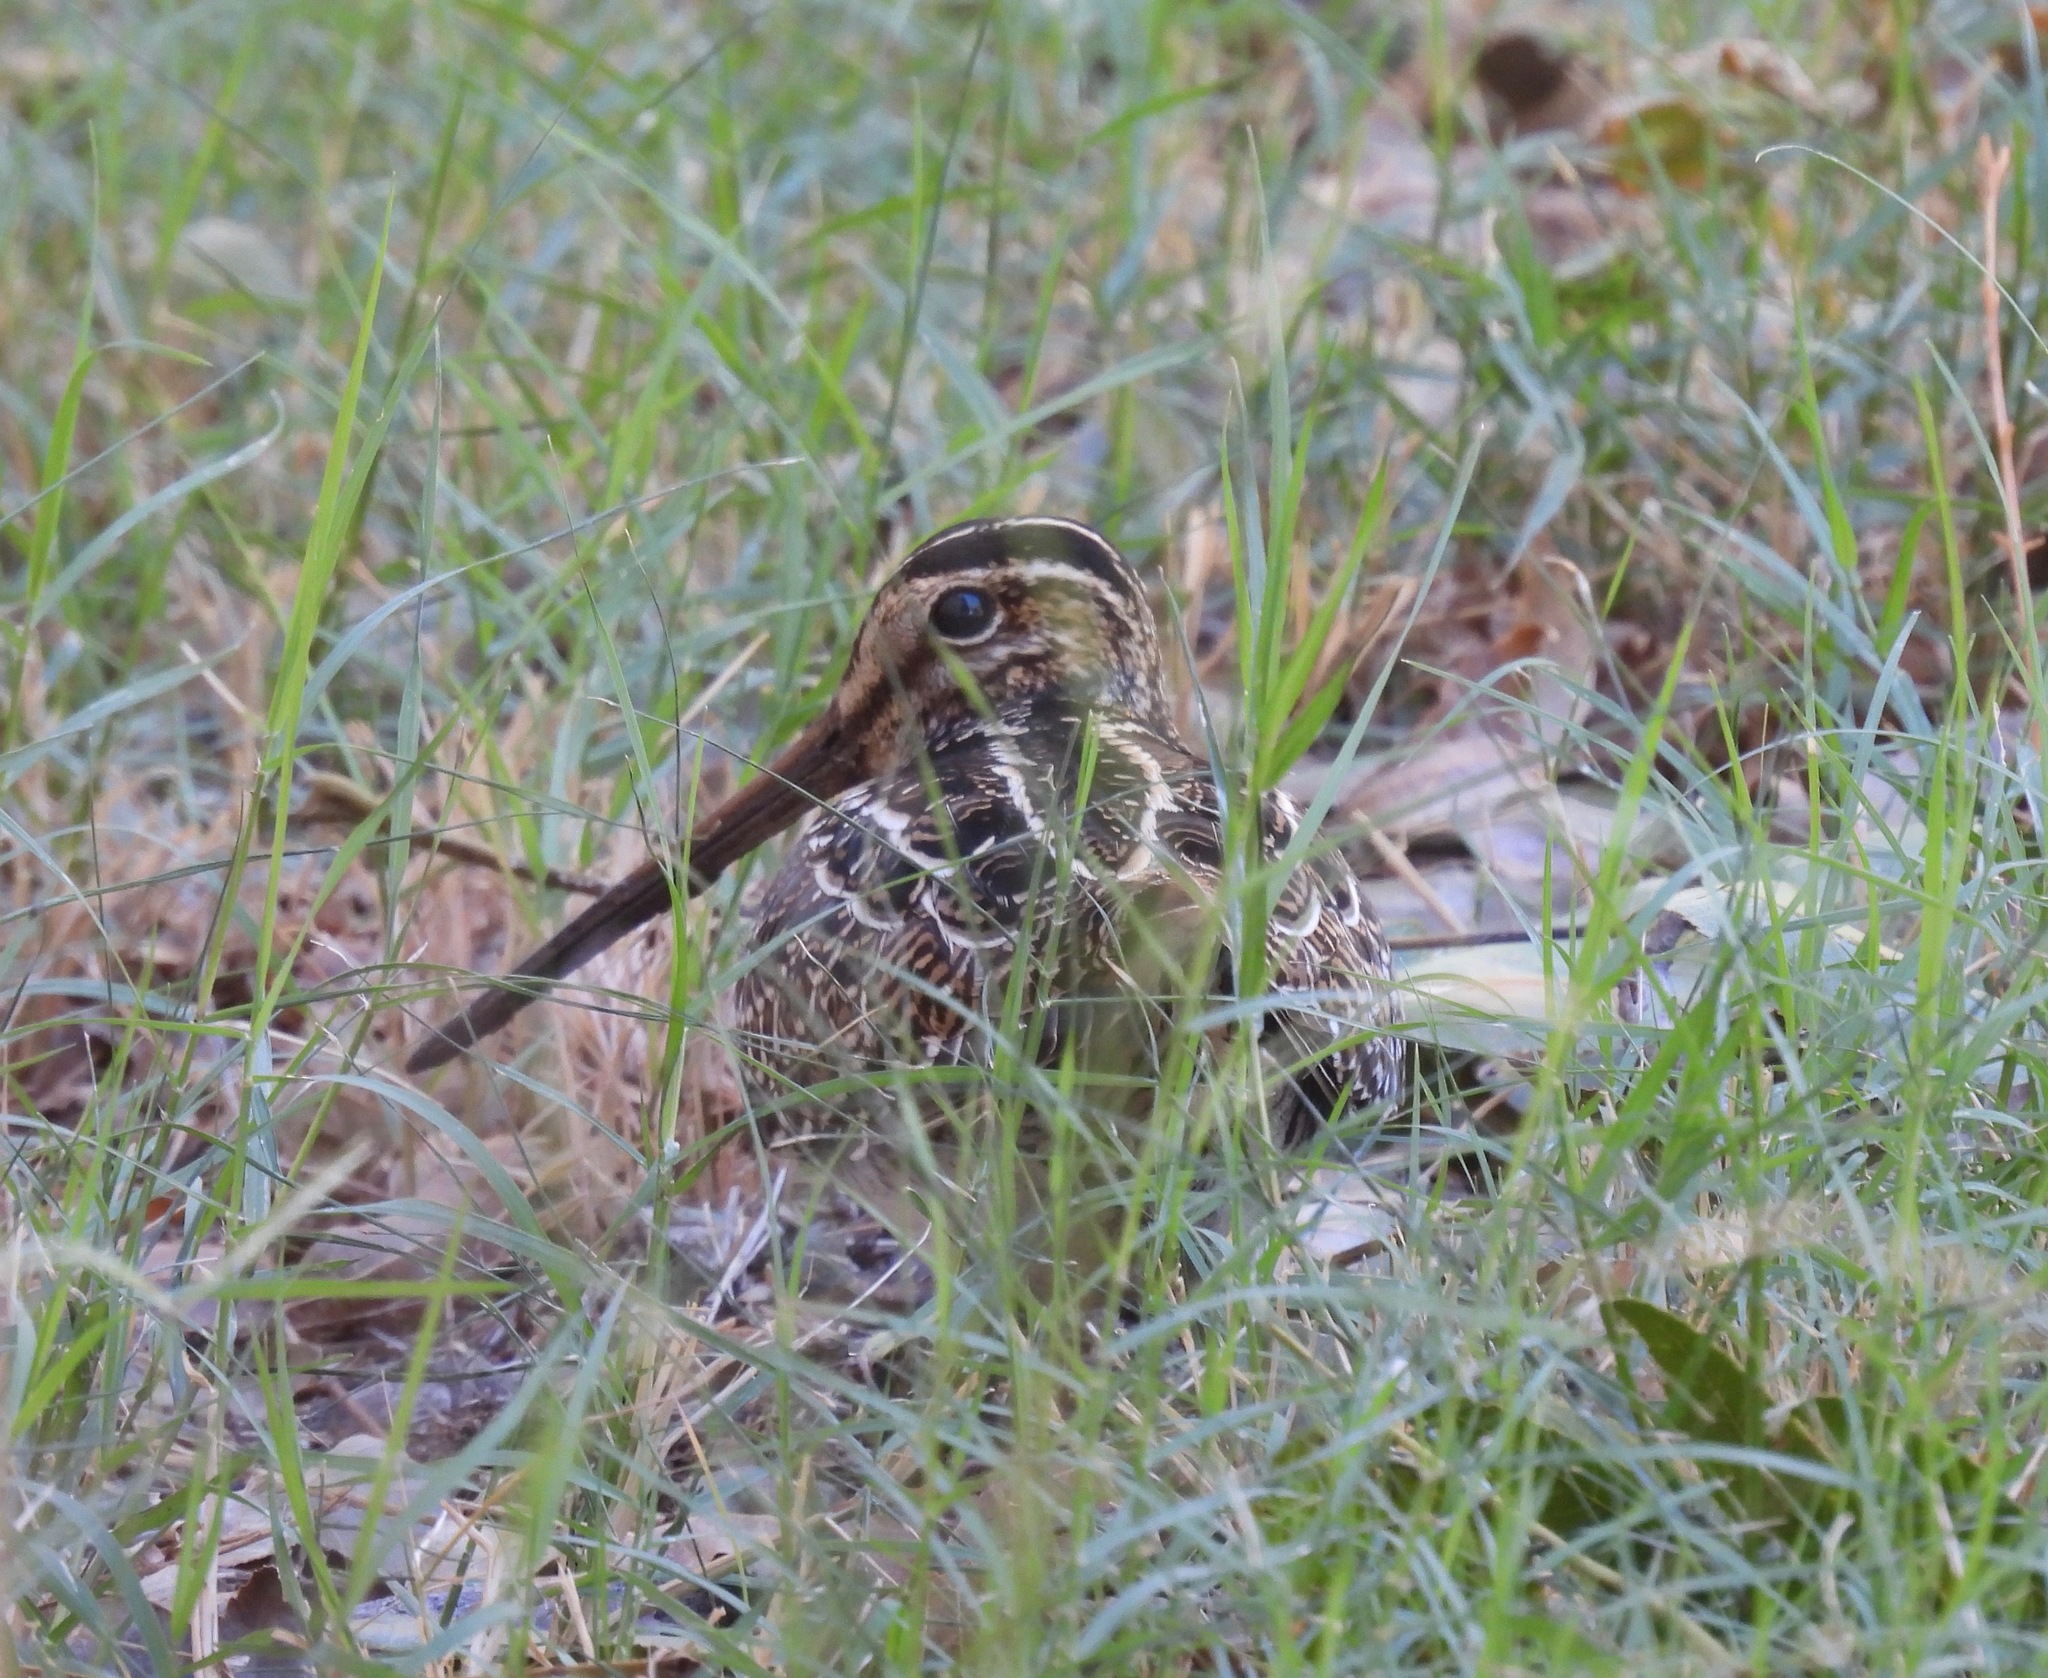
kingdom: Animalia
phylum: Chordata
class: Aves
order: Charadriiformes
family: Scolopacidae
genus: Gallinago
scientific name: Gallinago delicata
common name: Wilson's snipe
